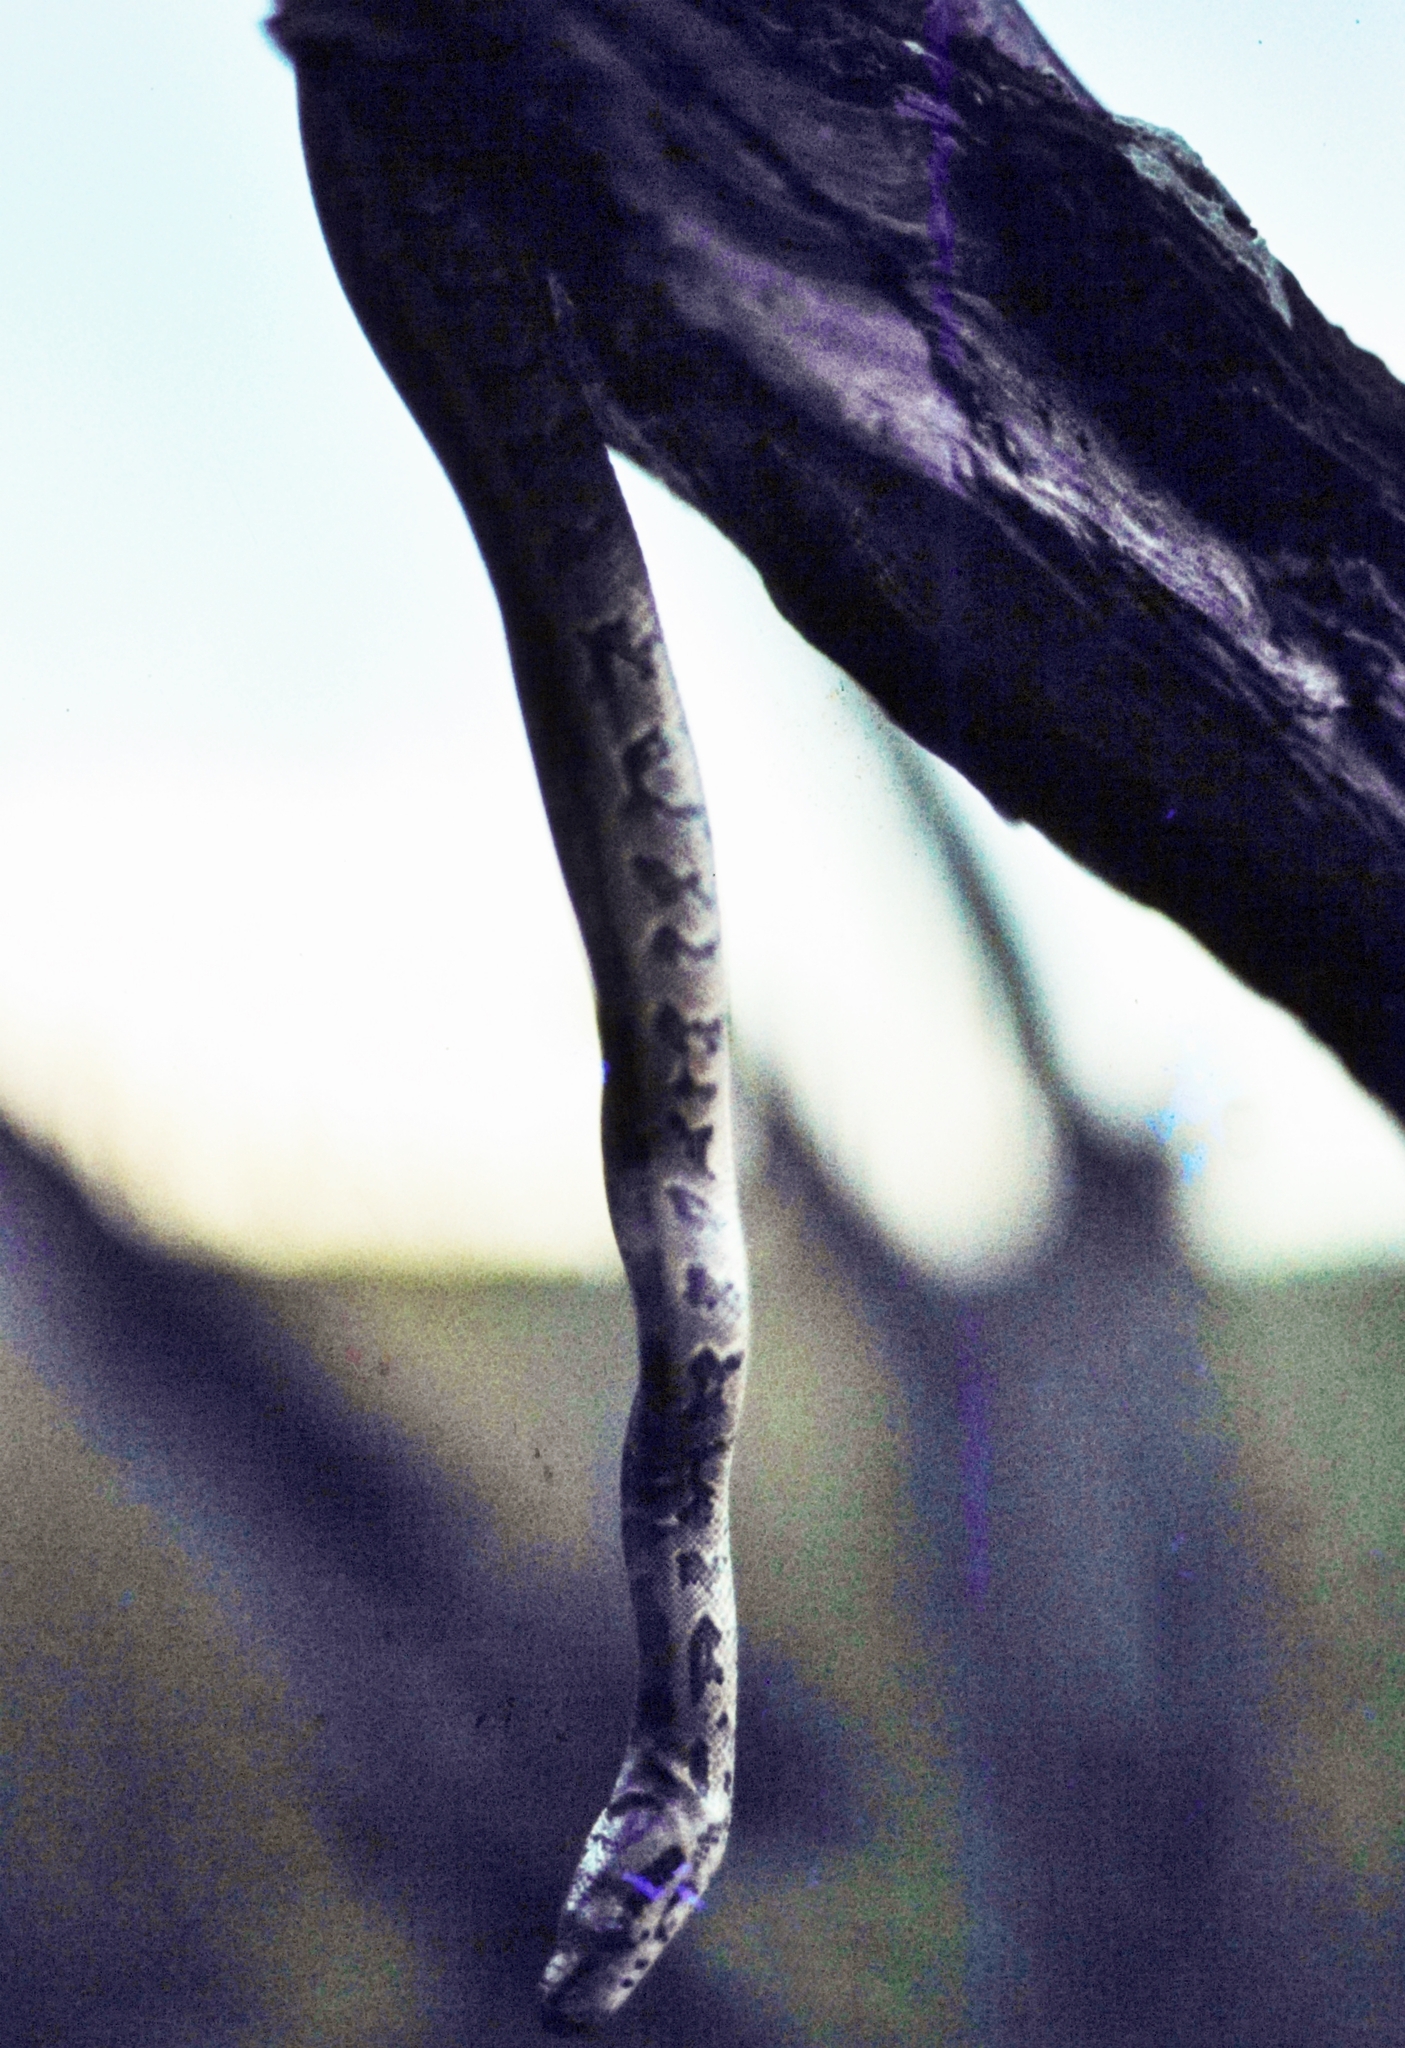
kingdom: Animalia
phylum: Chordata
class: Squamata
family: Pythonidae
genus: Python
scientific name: Python natalensis
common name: Southern african rock python
